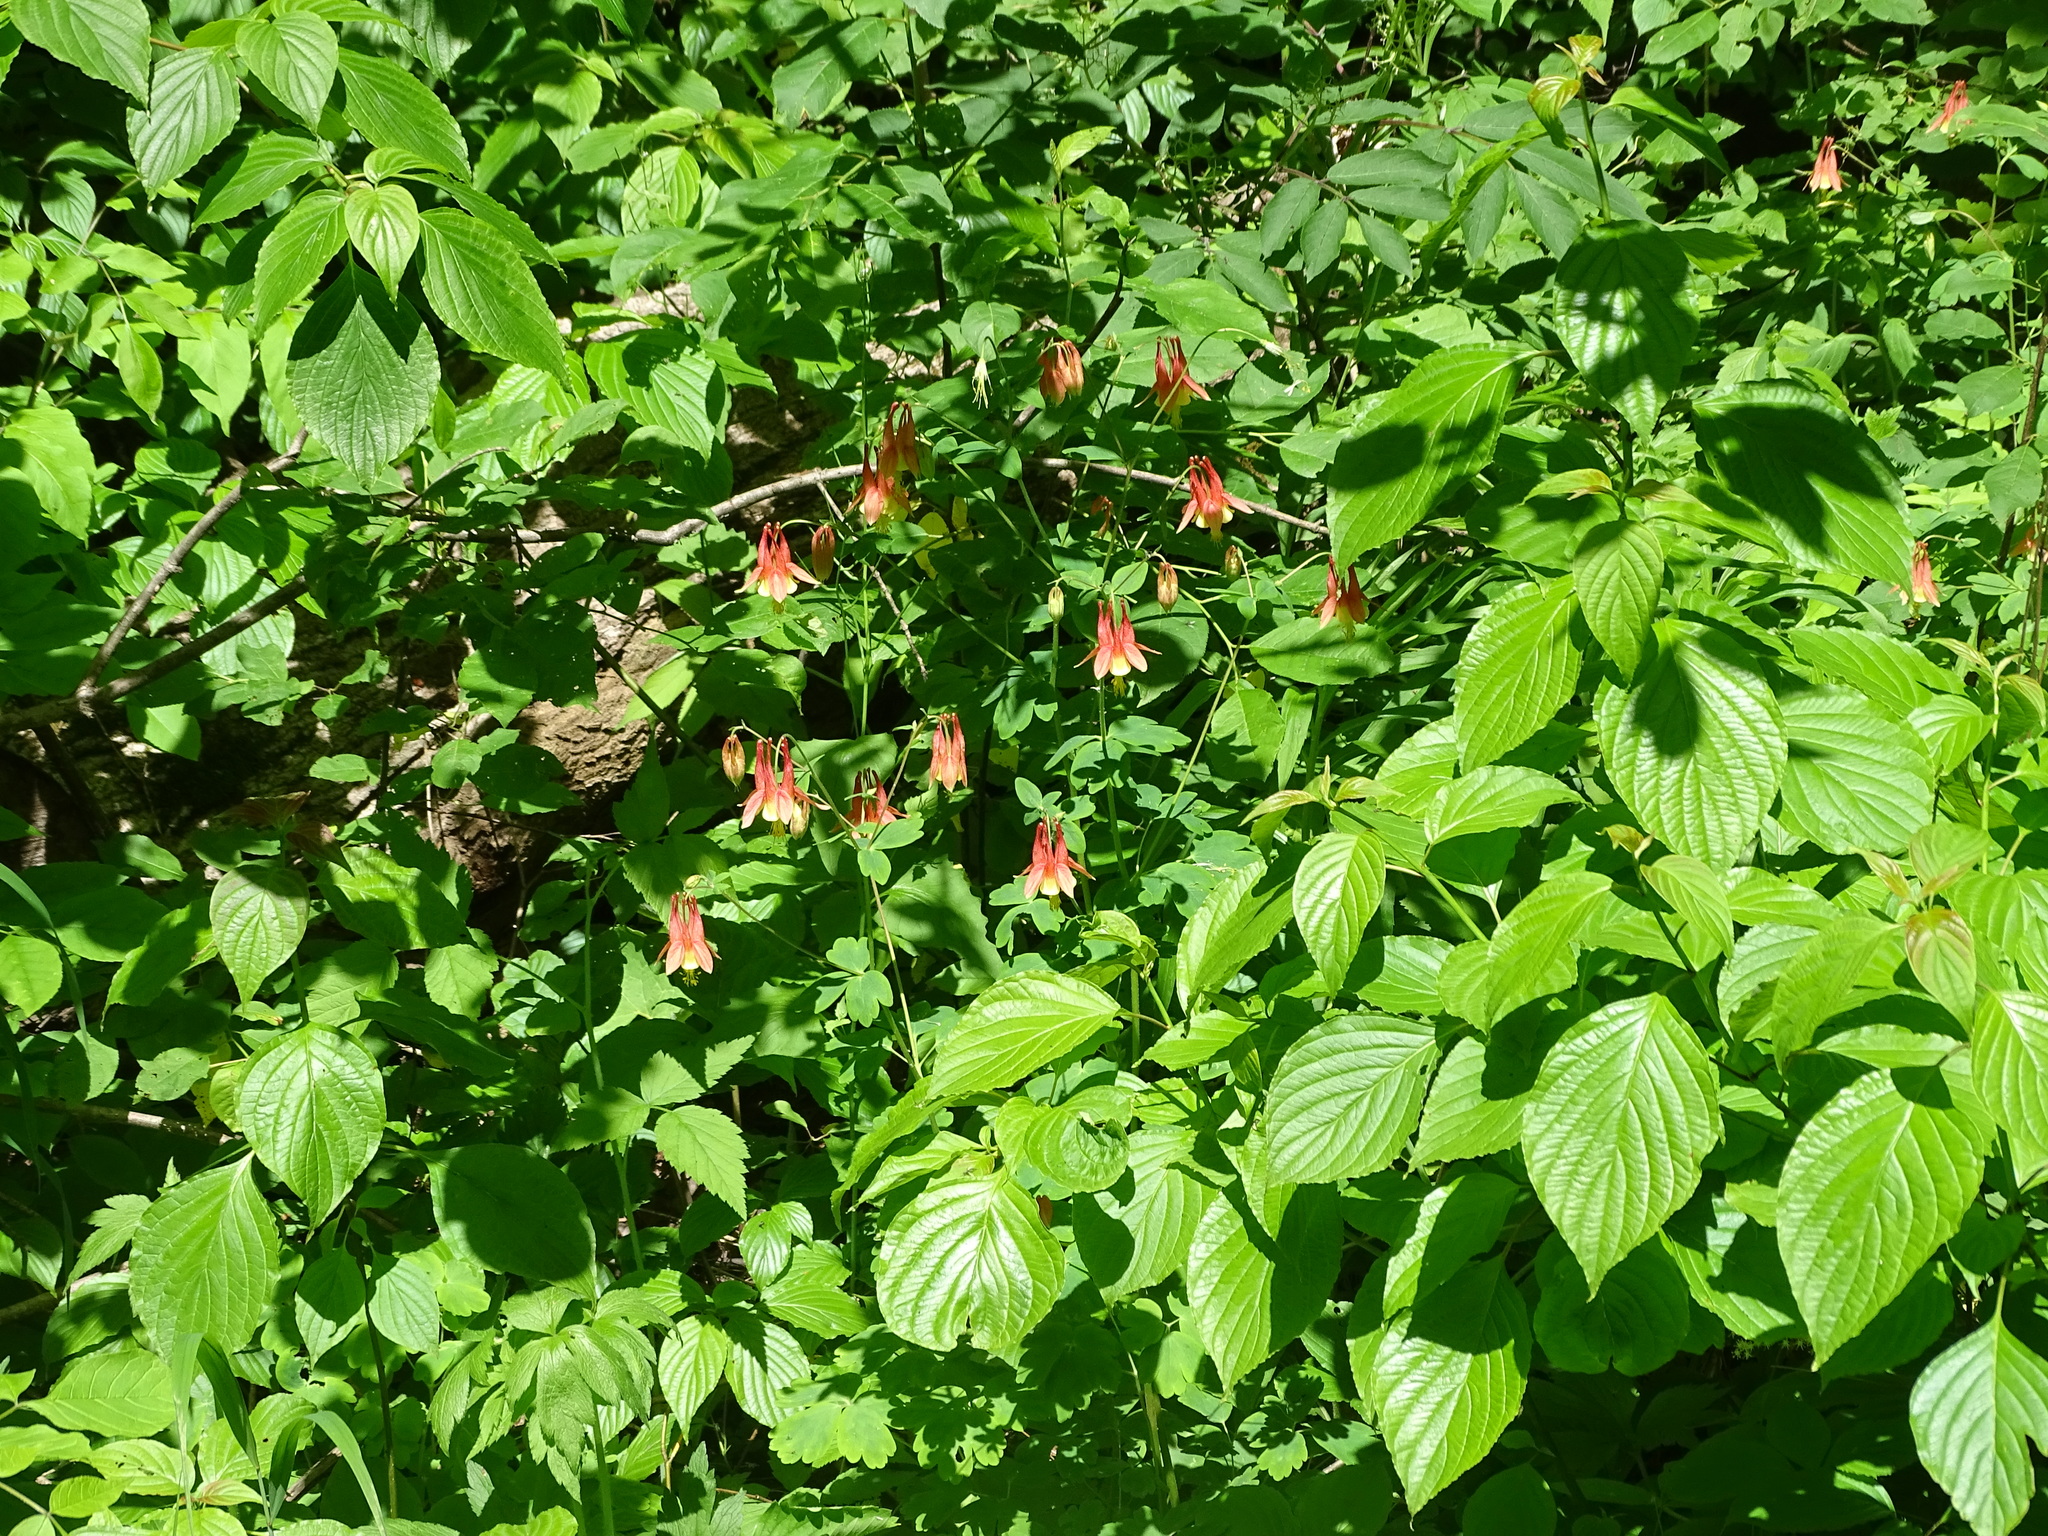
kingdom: Plantae
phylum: Tracheophyta
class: Magnoliopsida
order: Ranunculales
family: Ranunculaceae
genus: Aquilegia
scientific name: Aquilegia canadensis
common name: American columbine
